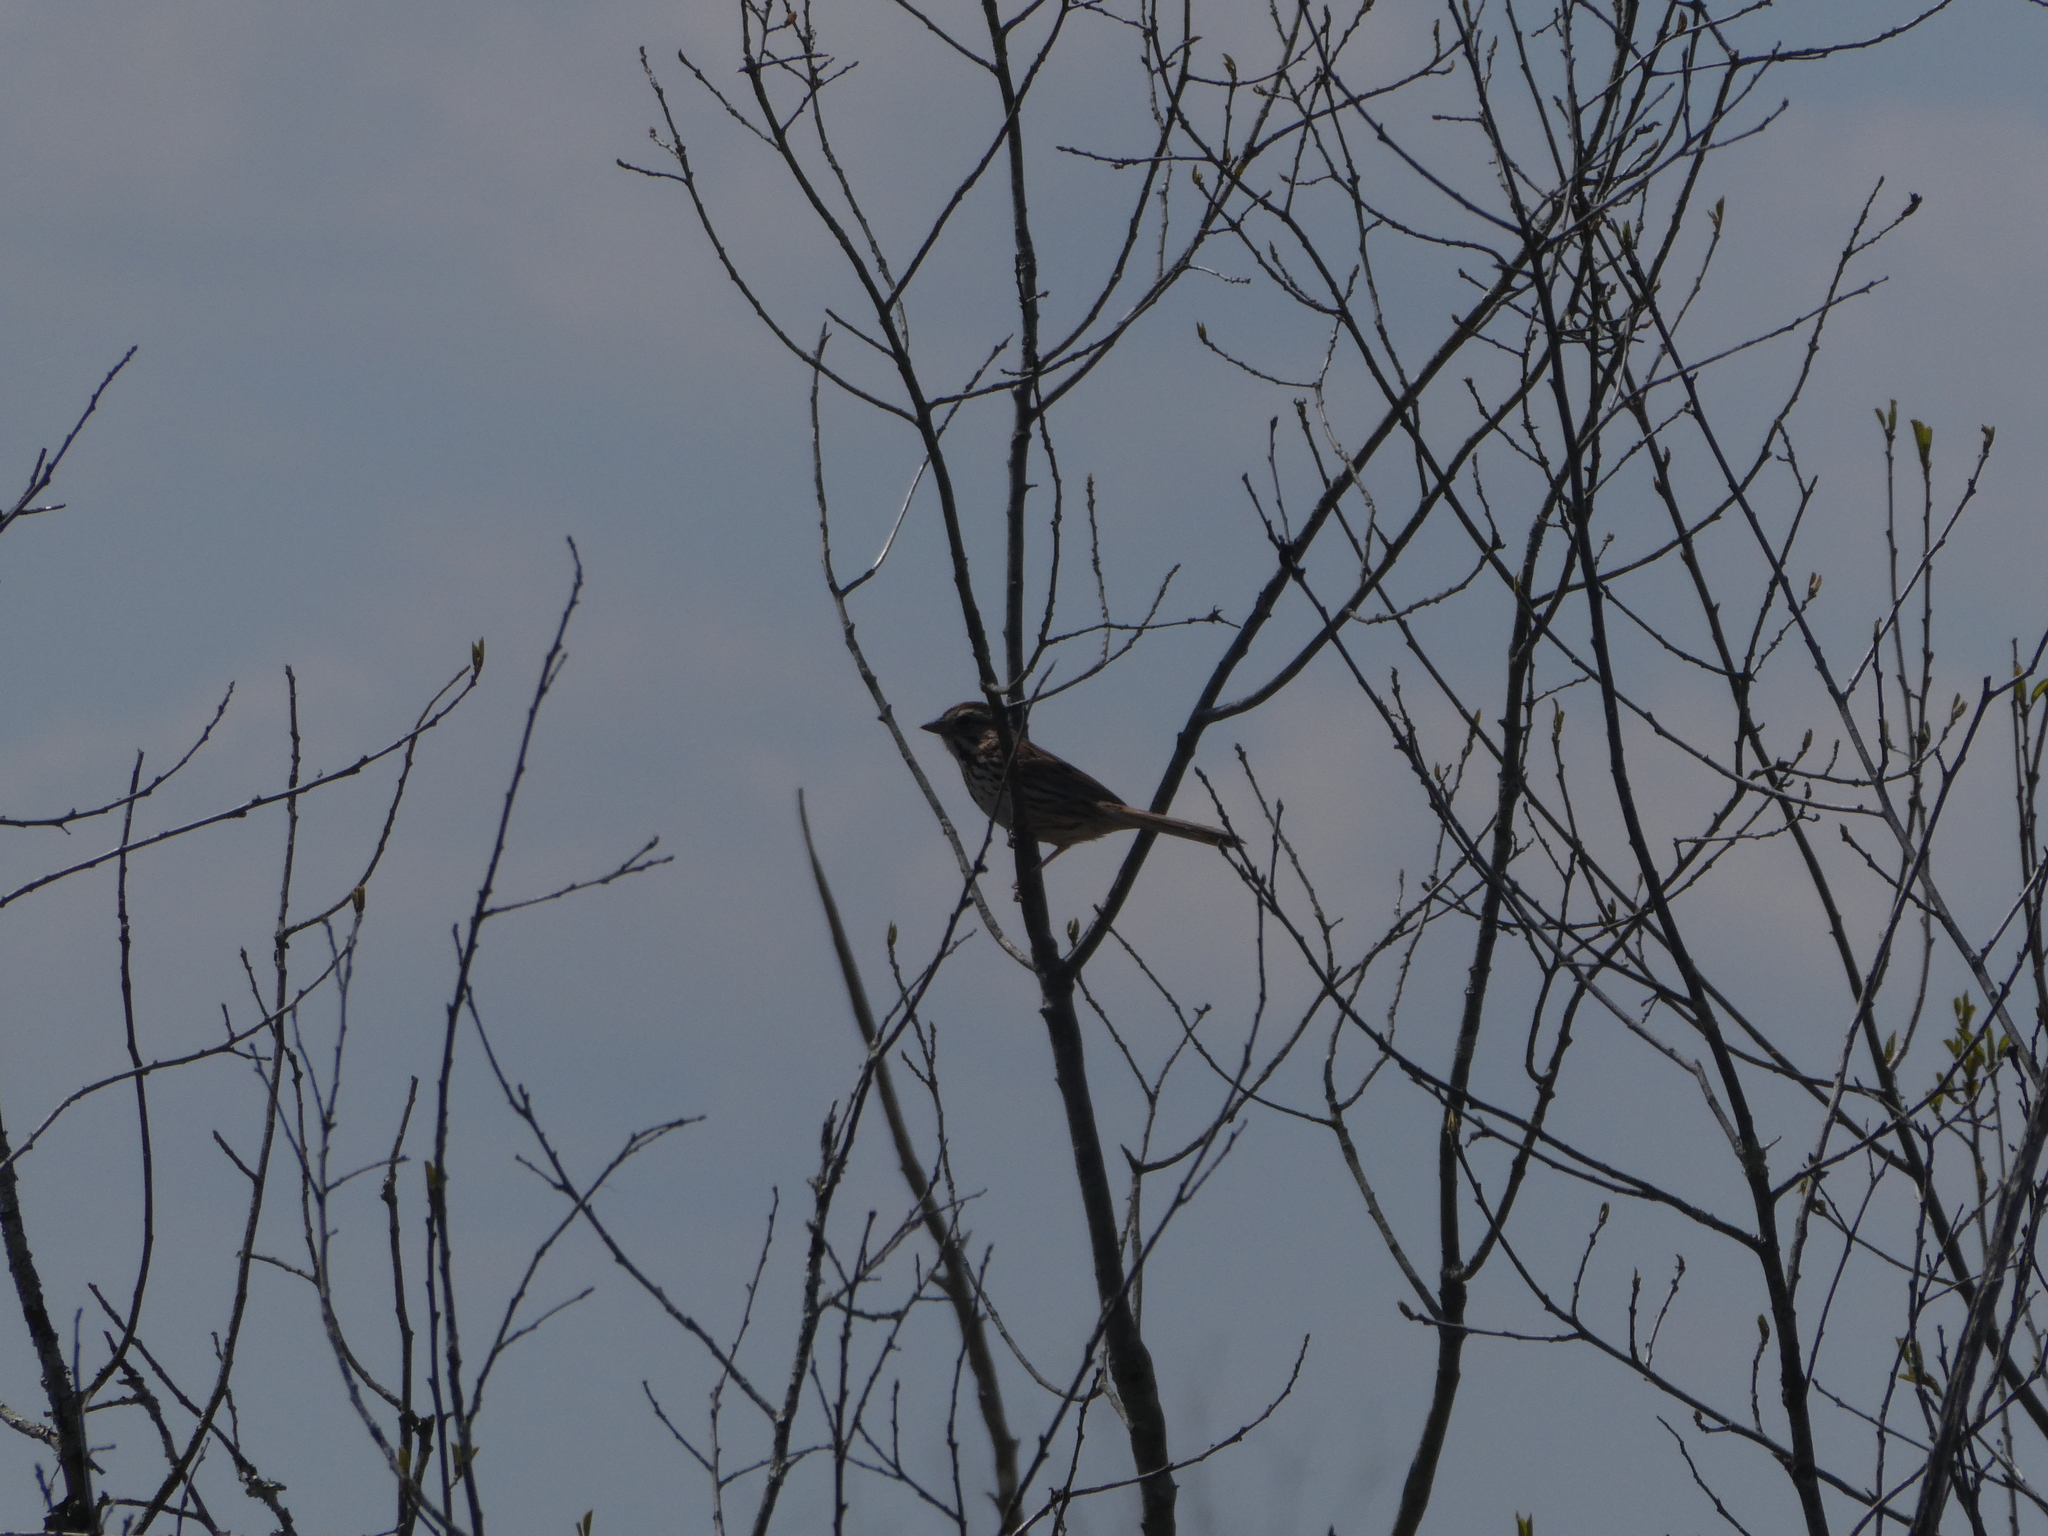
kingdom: Animalia
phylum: Chordata
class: Aves
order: Passeriformes
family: Passerellidae
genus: Melospiza
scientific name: Melospiza melodia
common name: Song sparrow
